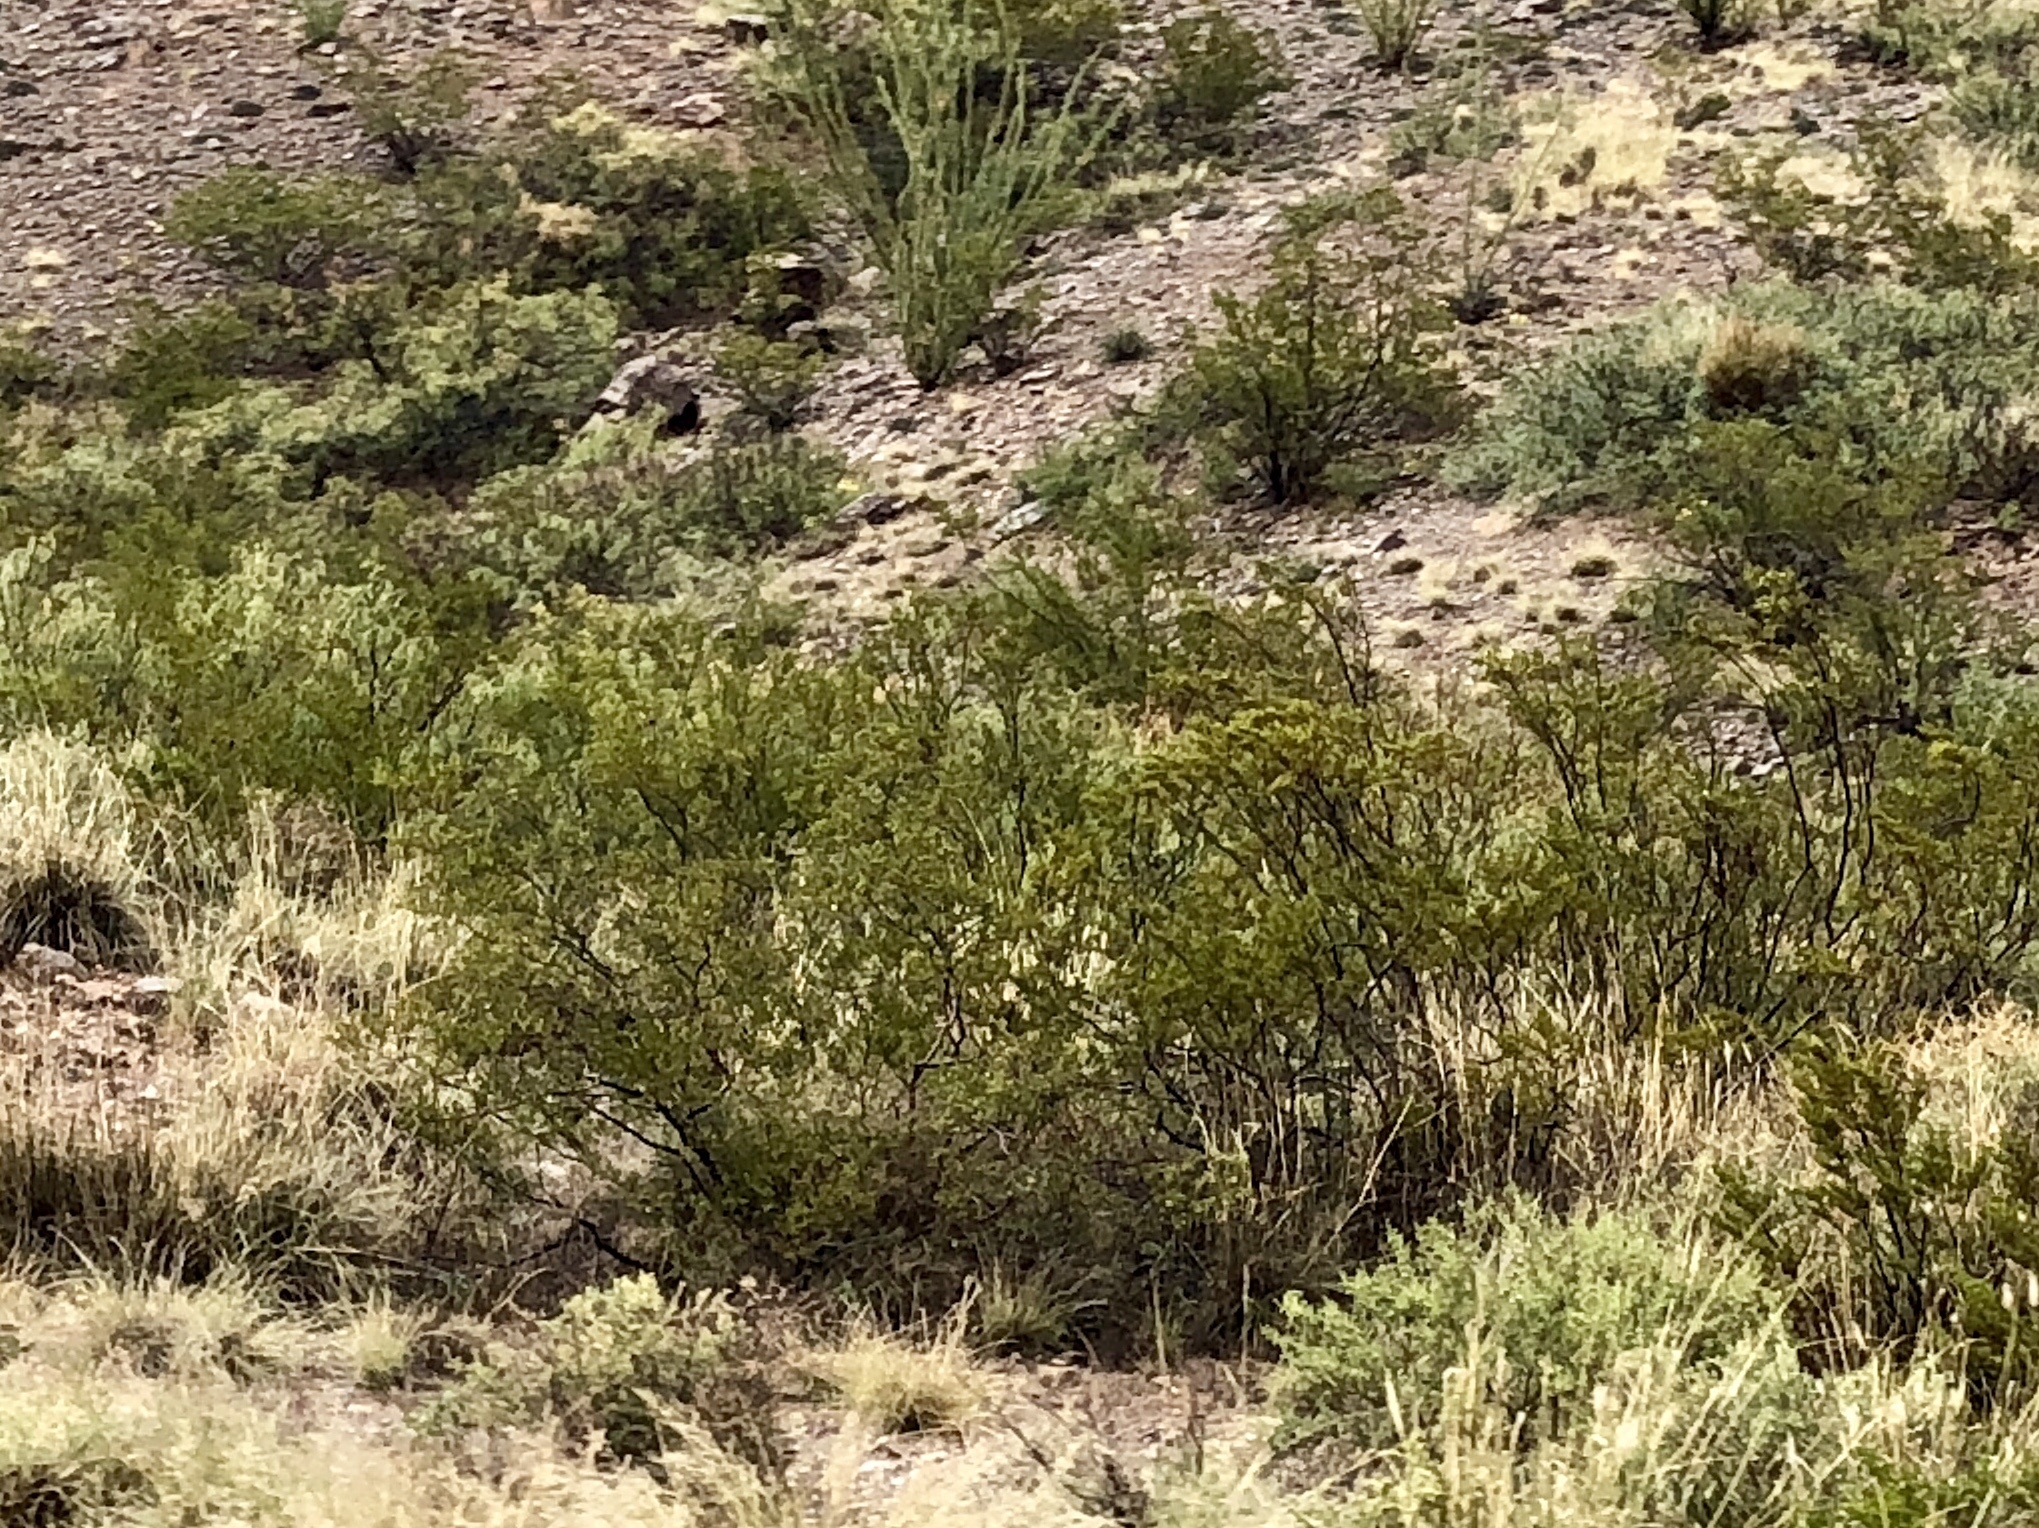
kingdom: Plantae
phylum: Tracheophyta
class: Magnoliopsida
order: Zygophyllales
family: Zygophyllaceae
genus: Larrea
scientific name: Larrea tridentata
